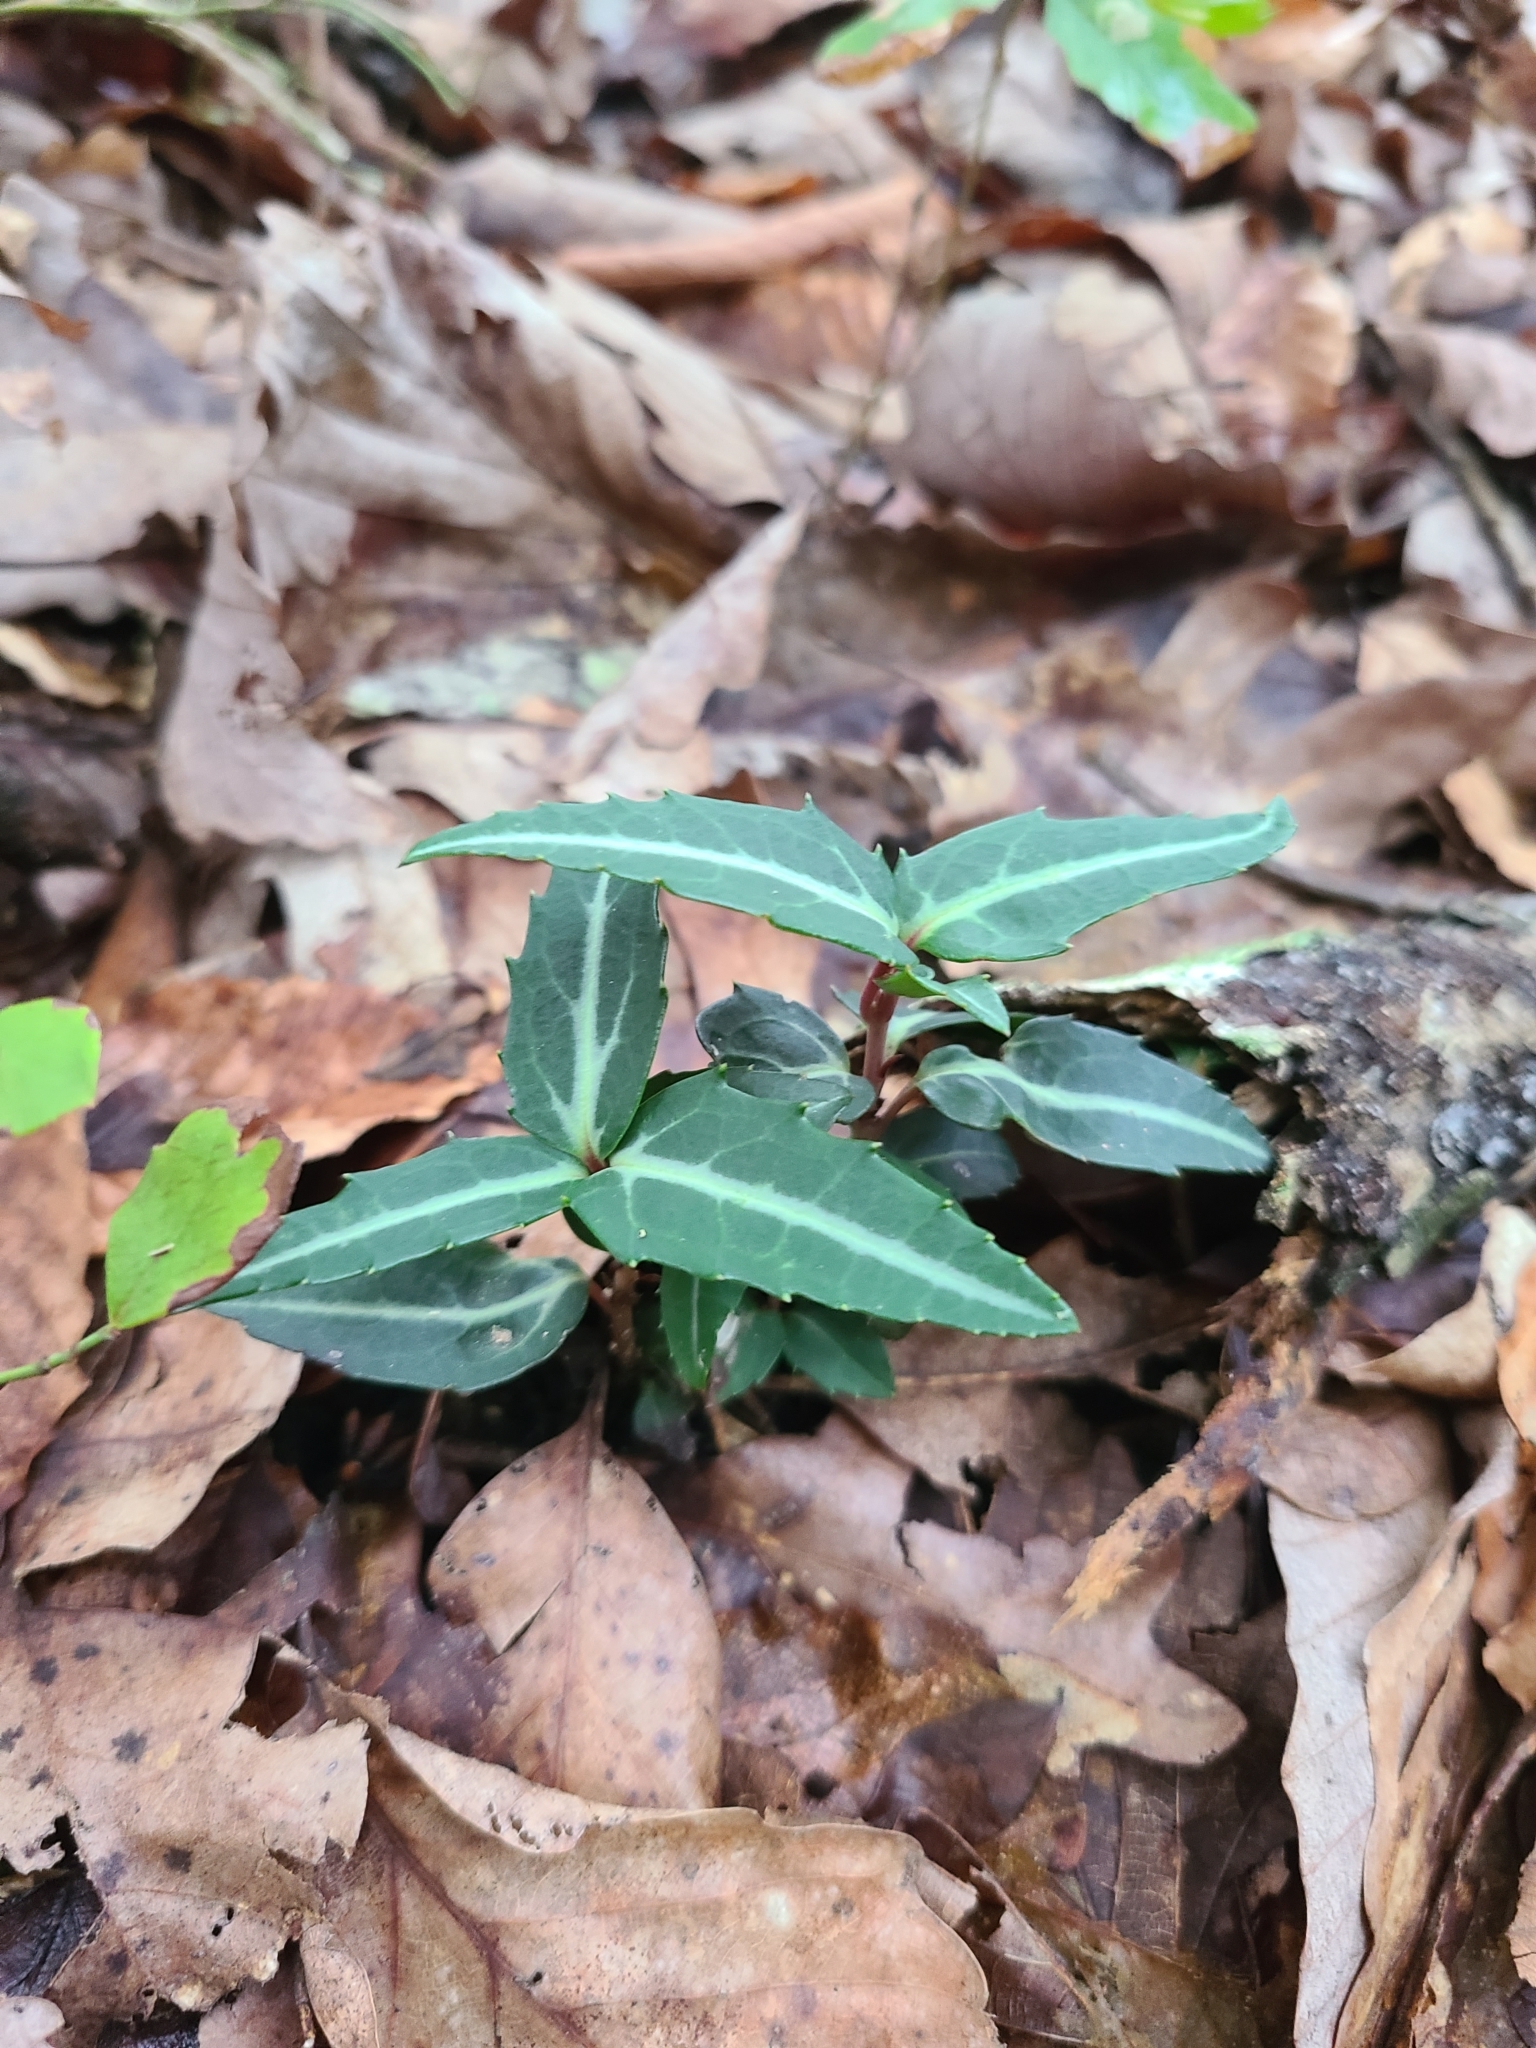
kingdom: Plantae
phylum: Tracheophyta
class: Magnoliopsida
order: Ericales
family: Ericaceae
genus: Chimaphila
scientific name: Chimaphila maculata
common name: Spotted pipsissewa
